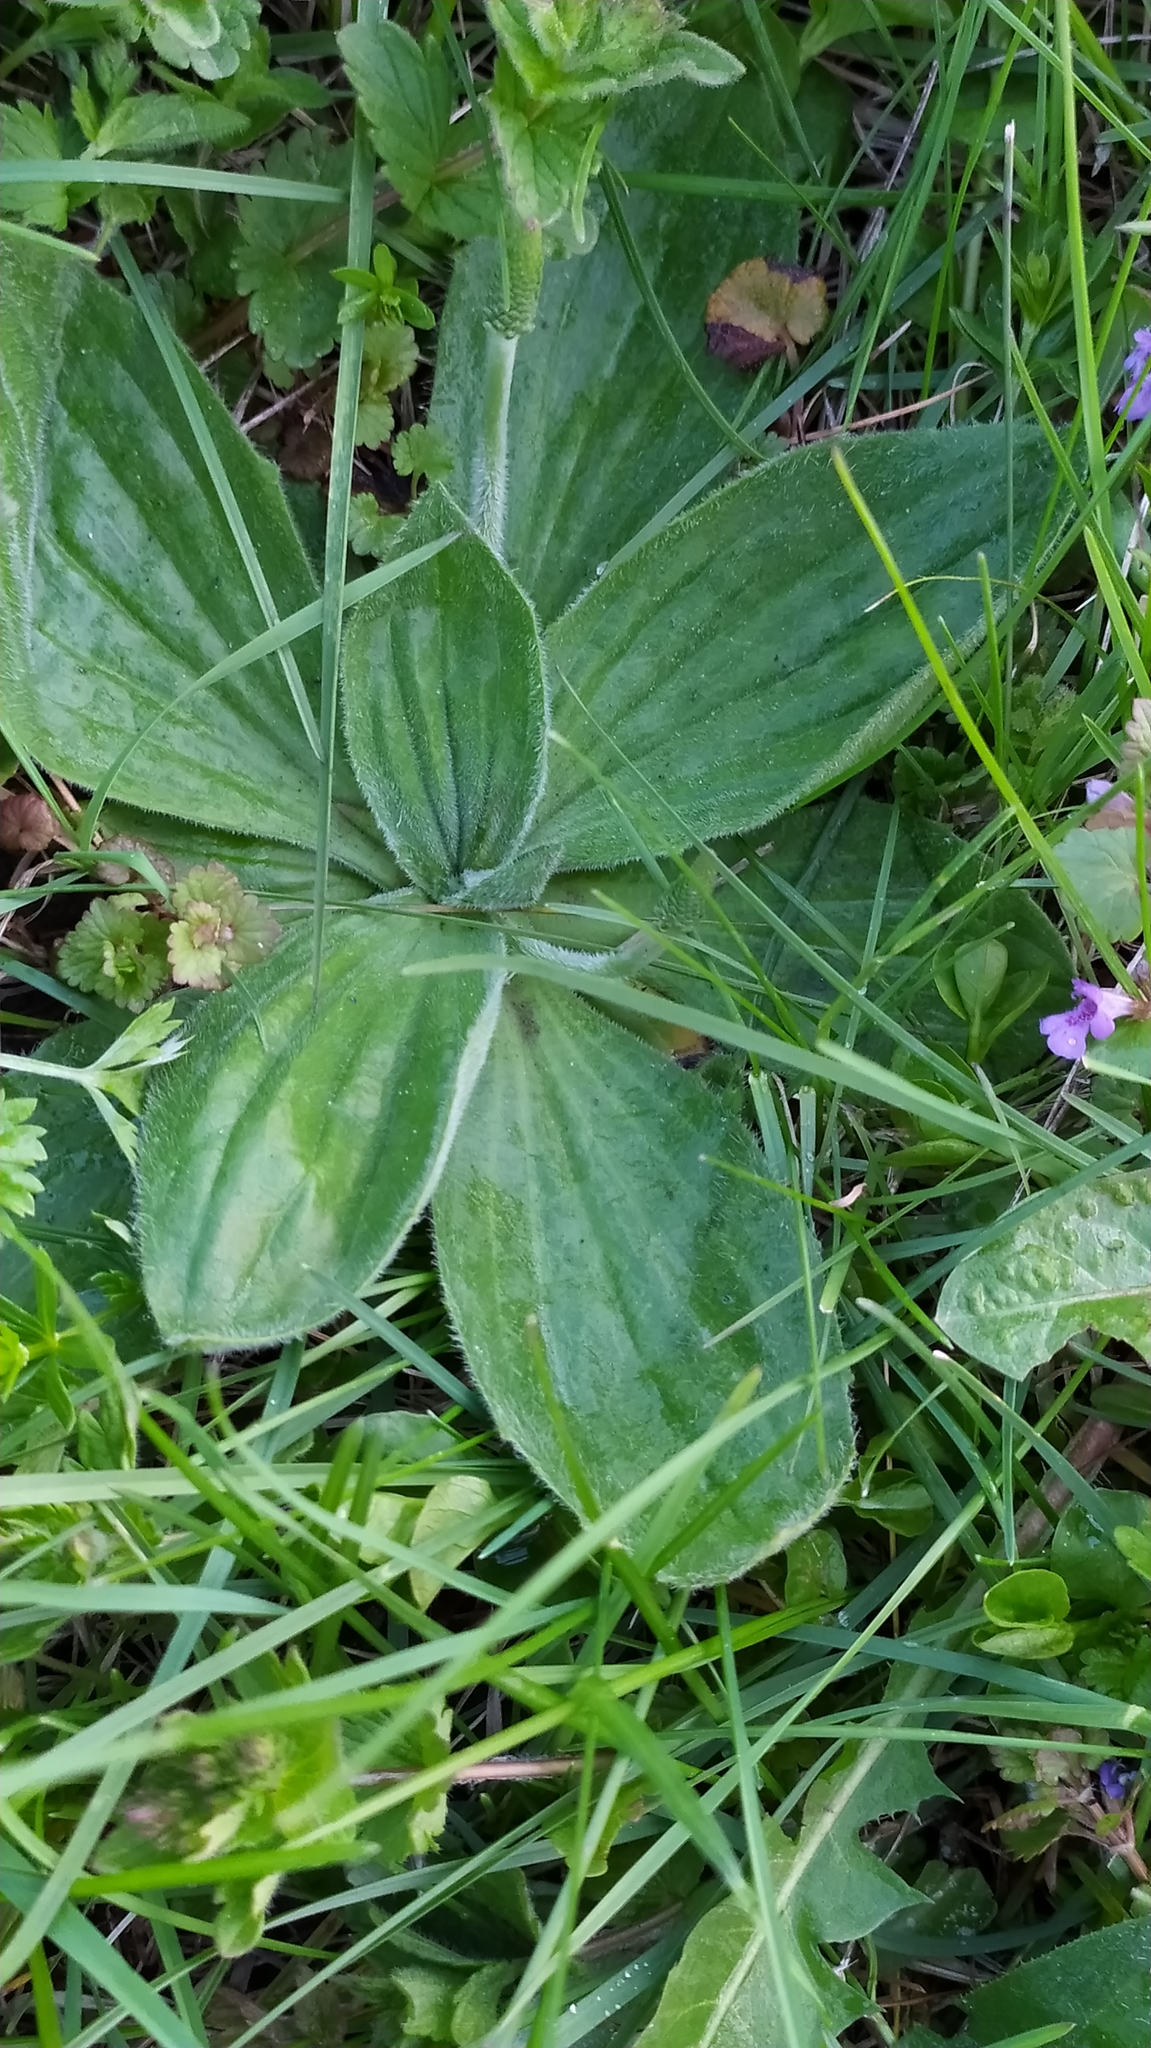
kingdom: Plantae
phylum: Tracheophyta
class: Magnoliopsida
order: Lamiales
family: Plantaginaceae
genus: Plantago
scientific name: Plantago media
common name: Hoary plantain
